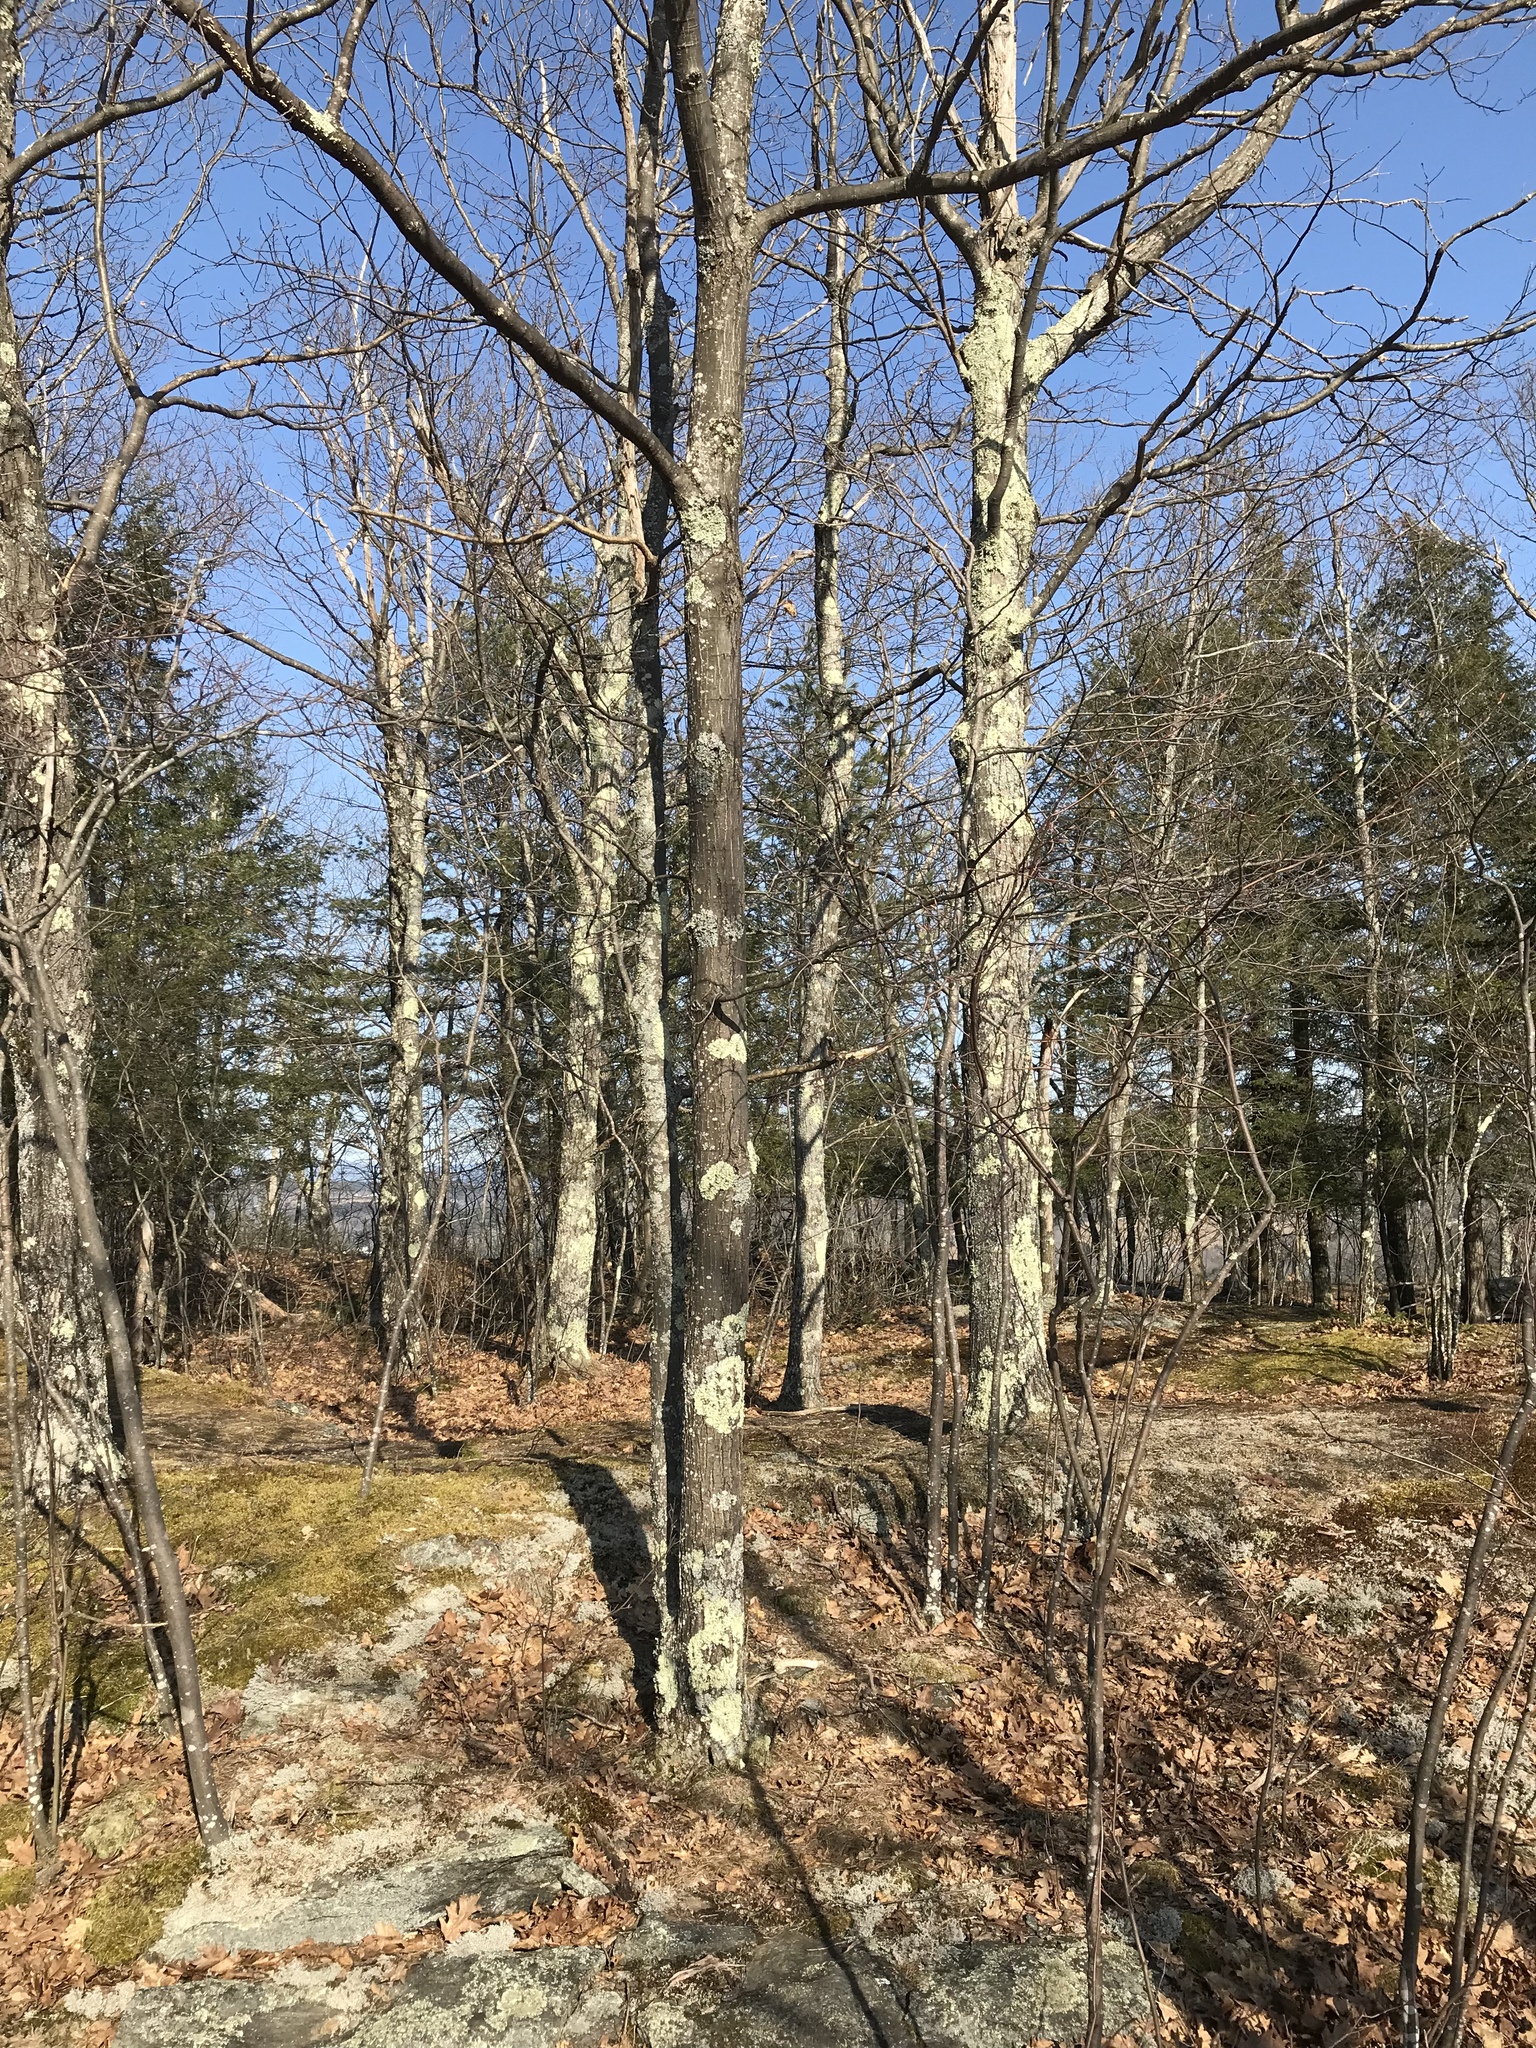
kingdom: Plantae
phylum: Tracheophyta
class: Magnoliopsida
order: Fagales
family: Fagaceae
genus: Quercus
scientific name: Quercus rubra
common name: Red oak
